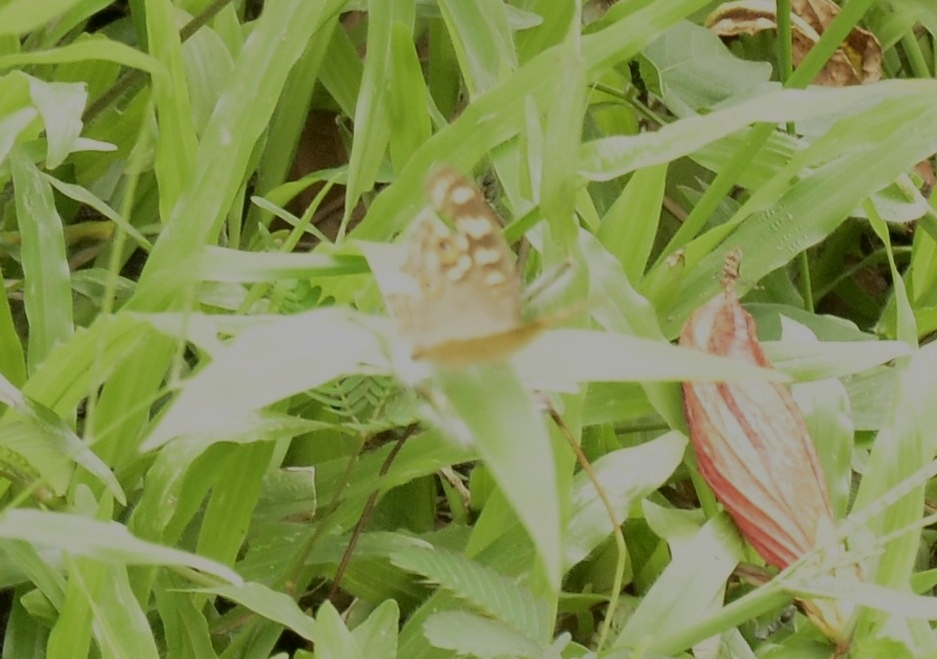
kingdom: Animalia
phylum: Arthropoda
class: Insecta
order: Lepidoptera
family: Nymphalidae
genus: Junonia
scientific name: Junonia lemonias
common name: Lemon pansy
